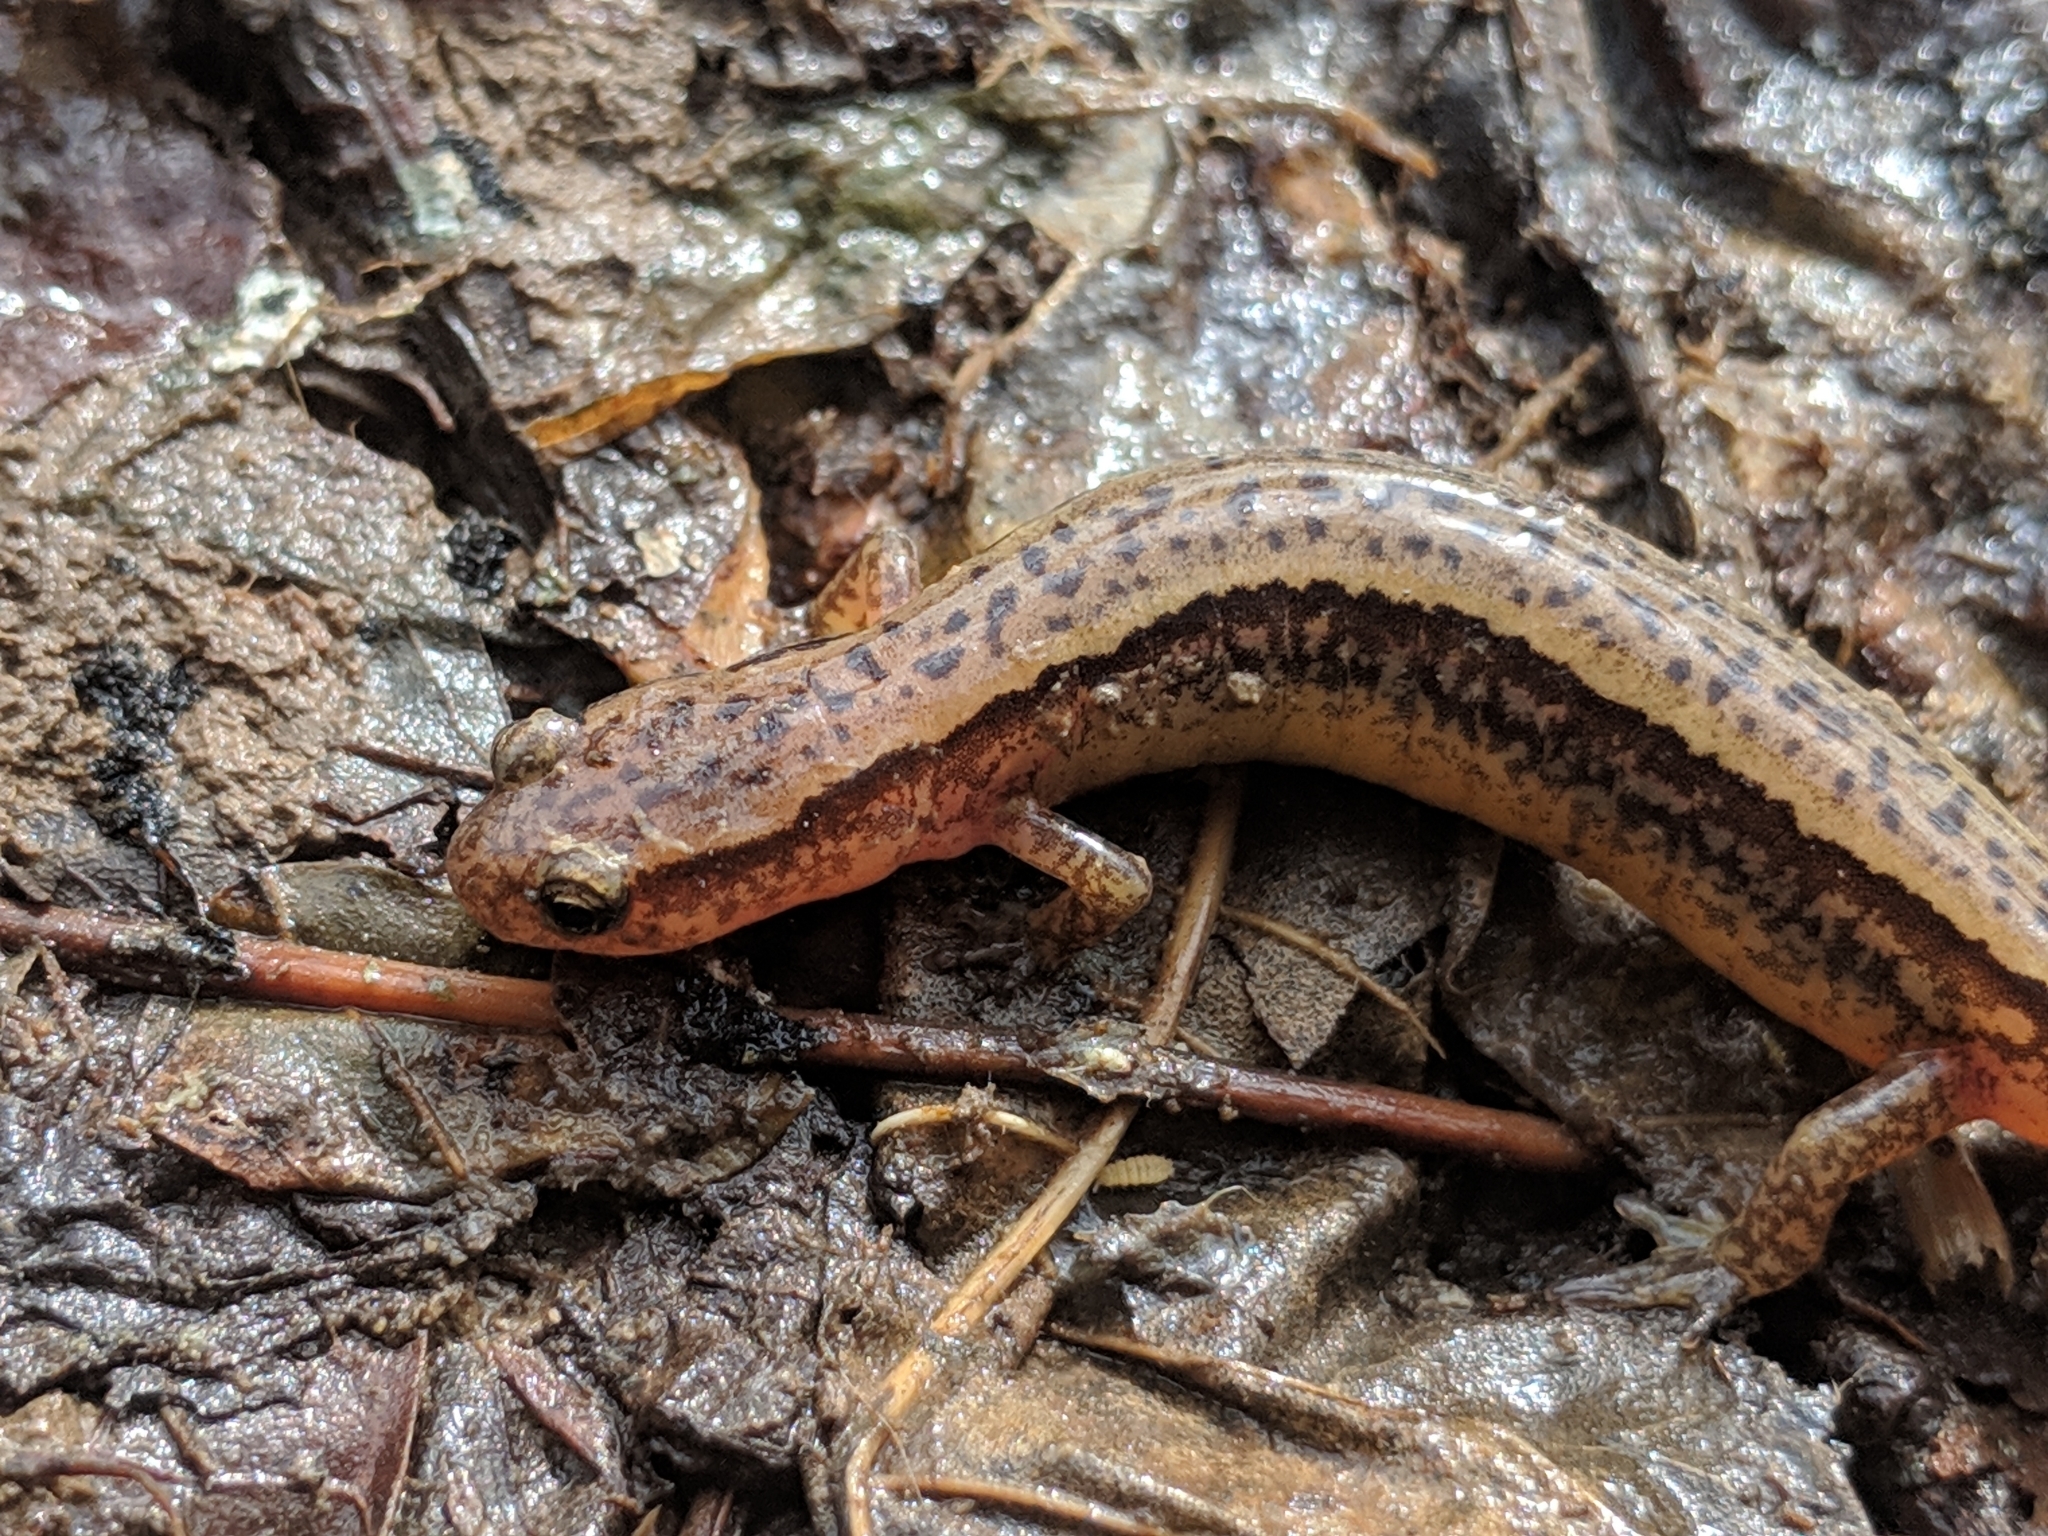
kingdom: Animalia
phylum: Chordata
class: Amphibia
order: Caudata
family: Plethodontidae
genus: Eurycea
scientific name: Eurycea cirrigera
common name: Southern two-lined salamander
